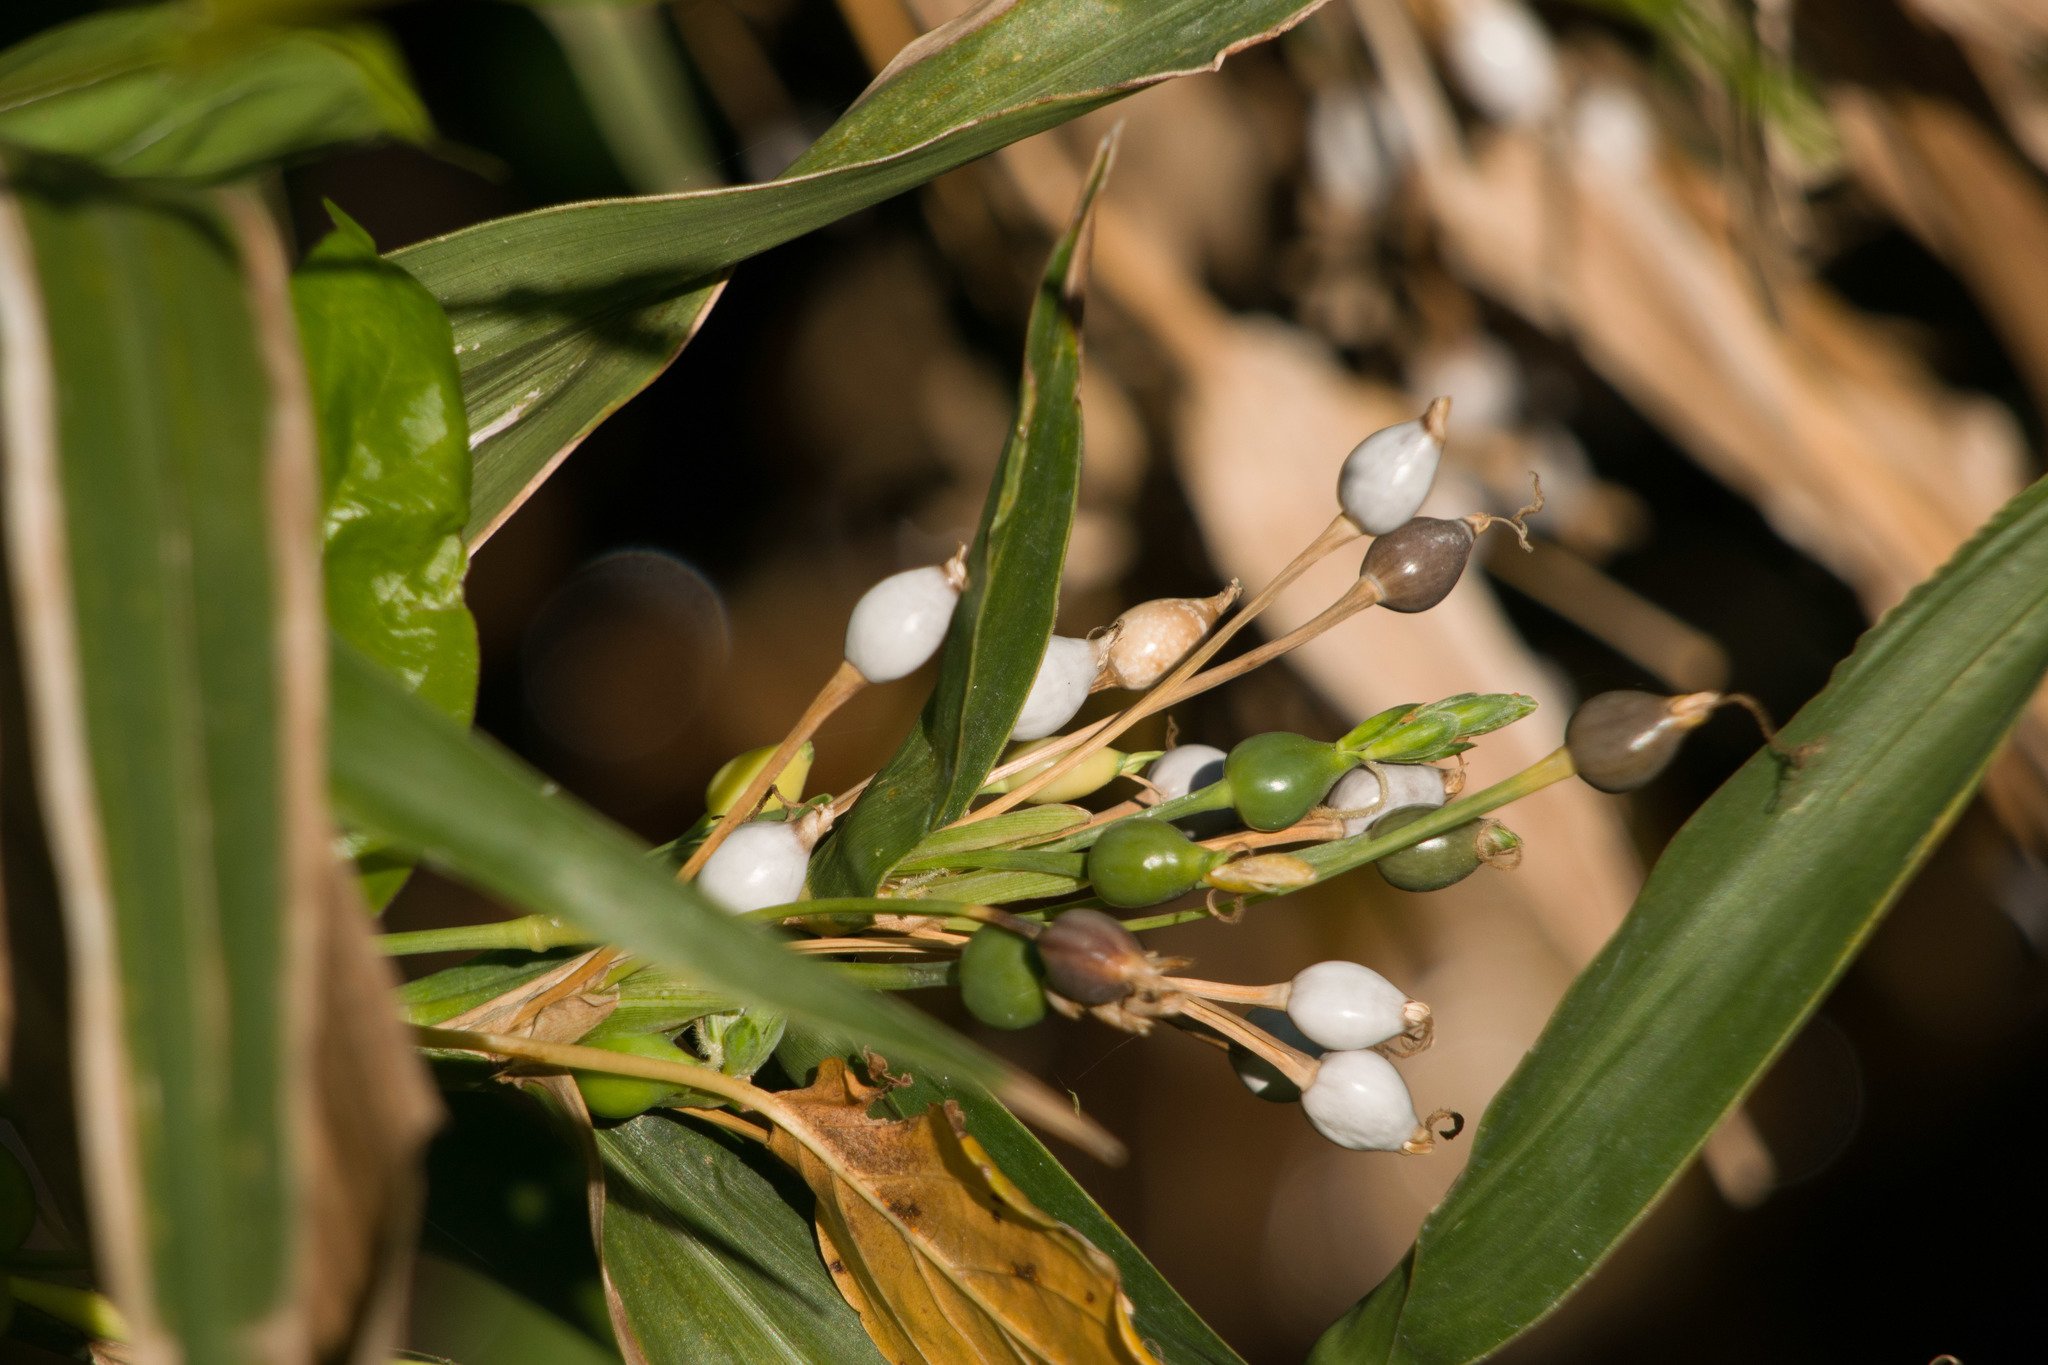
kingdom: Plantae
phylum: Tracheophyta
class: Liliopsida
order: Poales
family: Poaceae
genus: Coix
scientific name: Coix lacryma-jobi
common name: Job's tears
